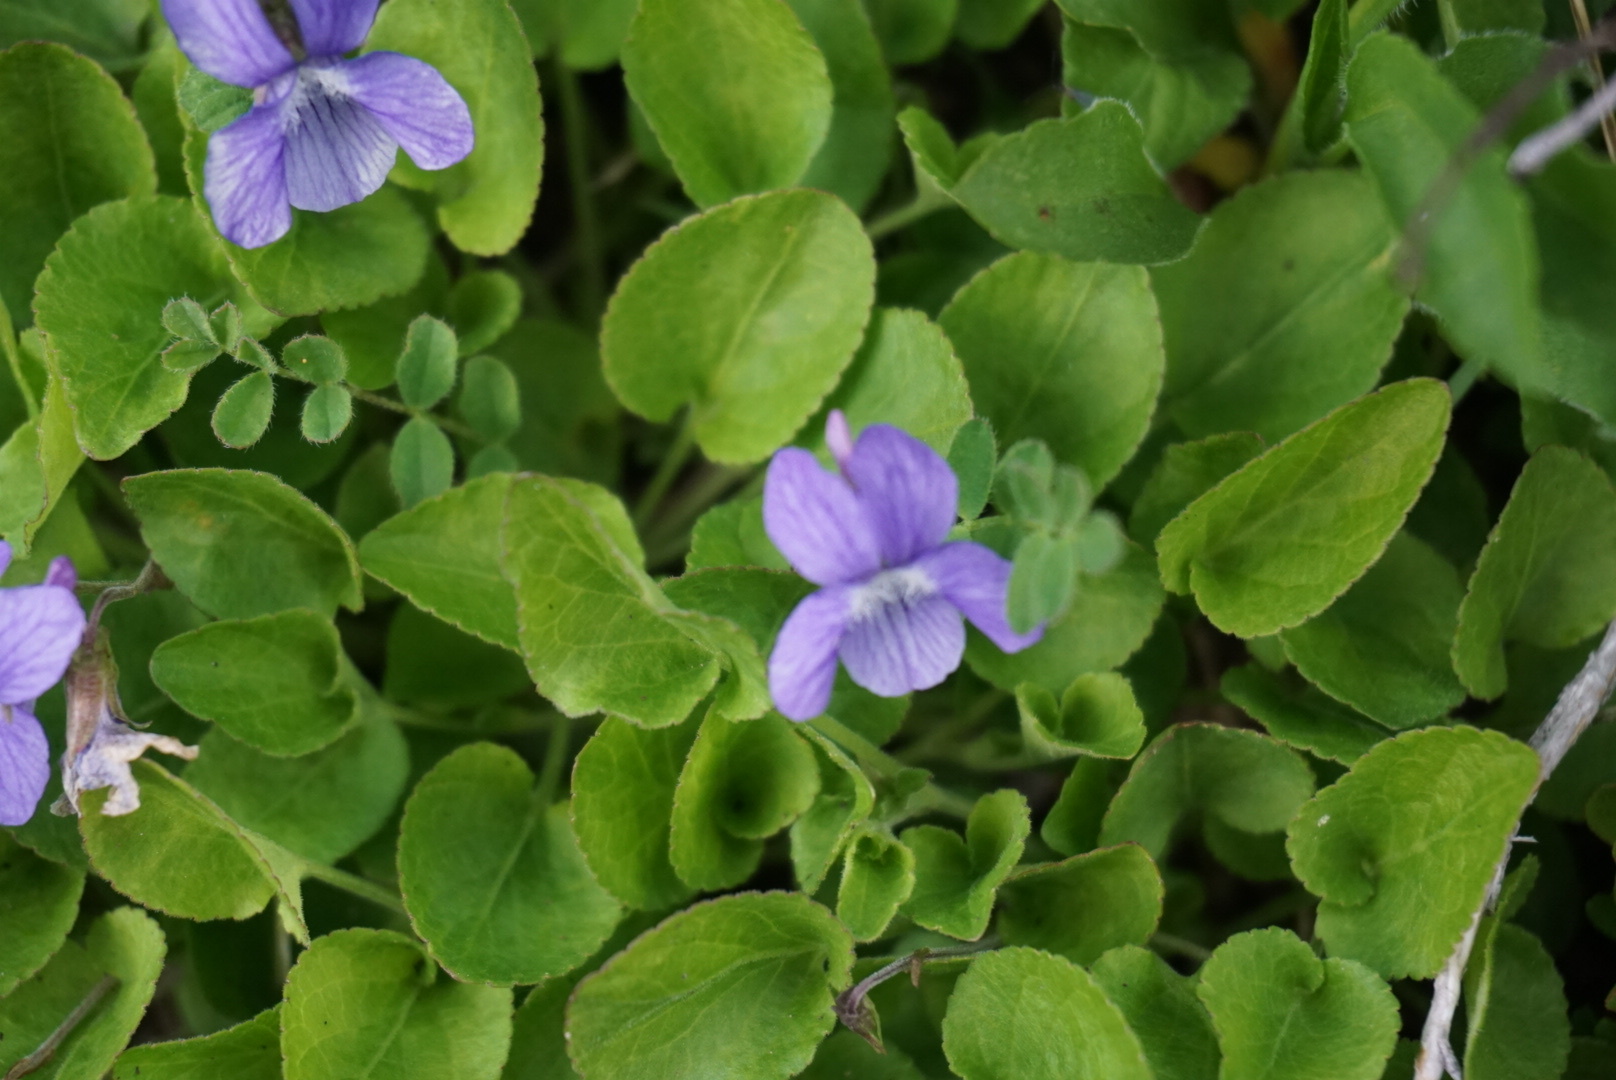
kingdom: Plantae
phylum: Tracheophyta
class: Magnoliopsida
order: Malpighiales
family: Violaceae
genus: Viola
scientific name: Viola adunca
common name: Sand violet
